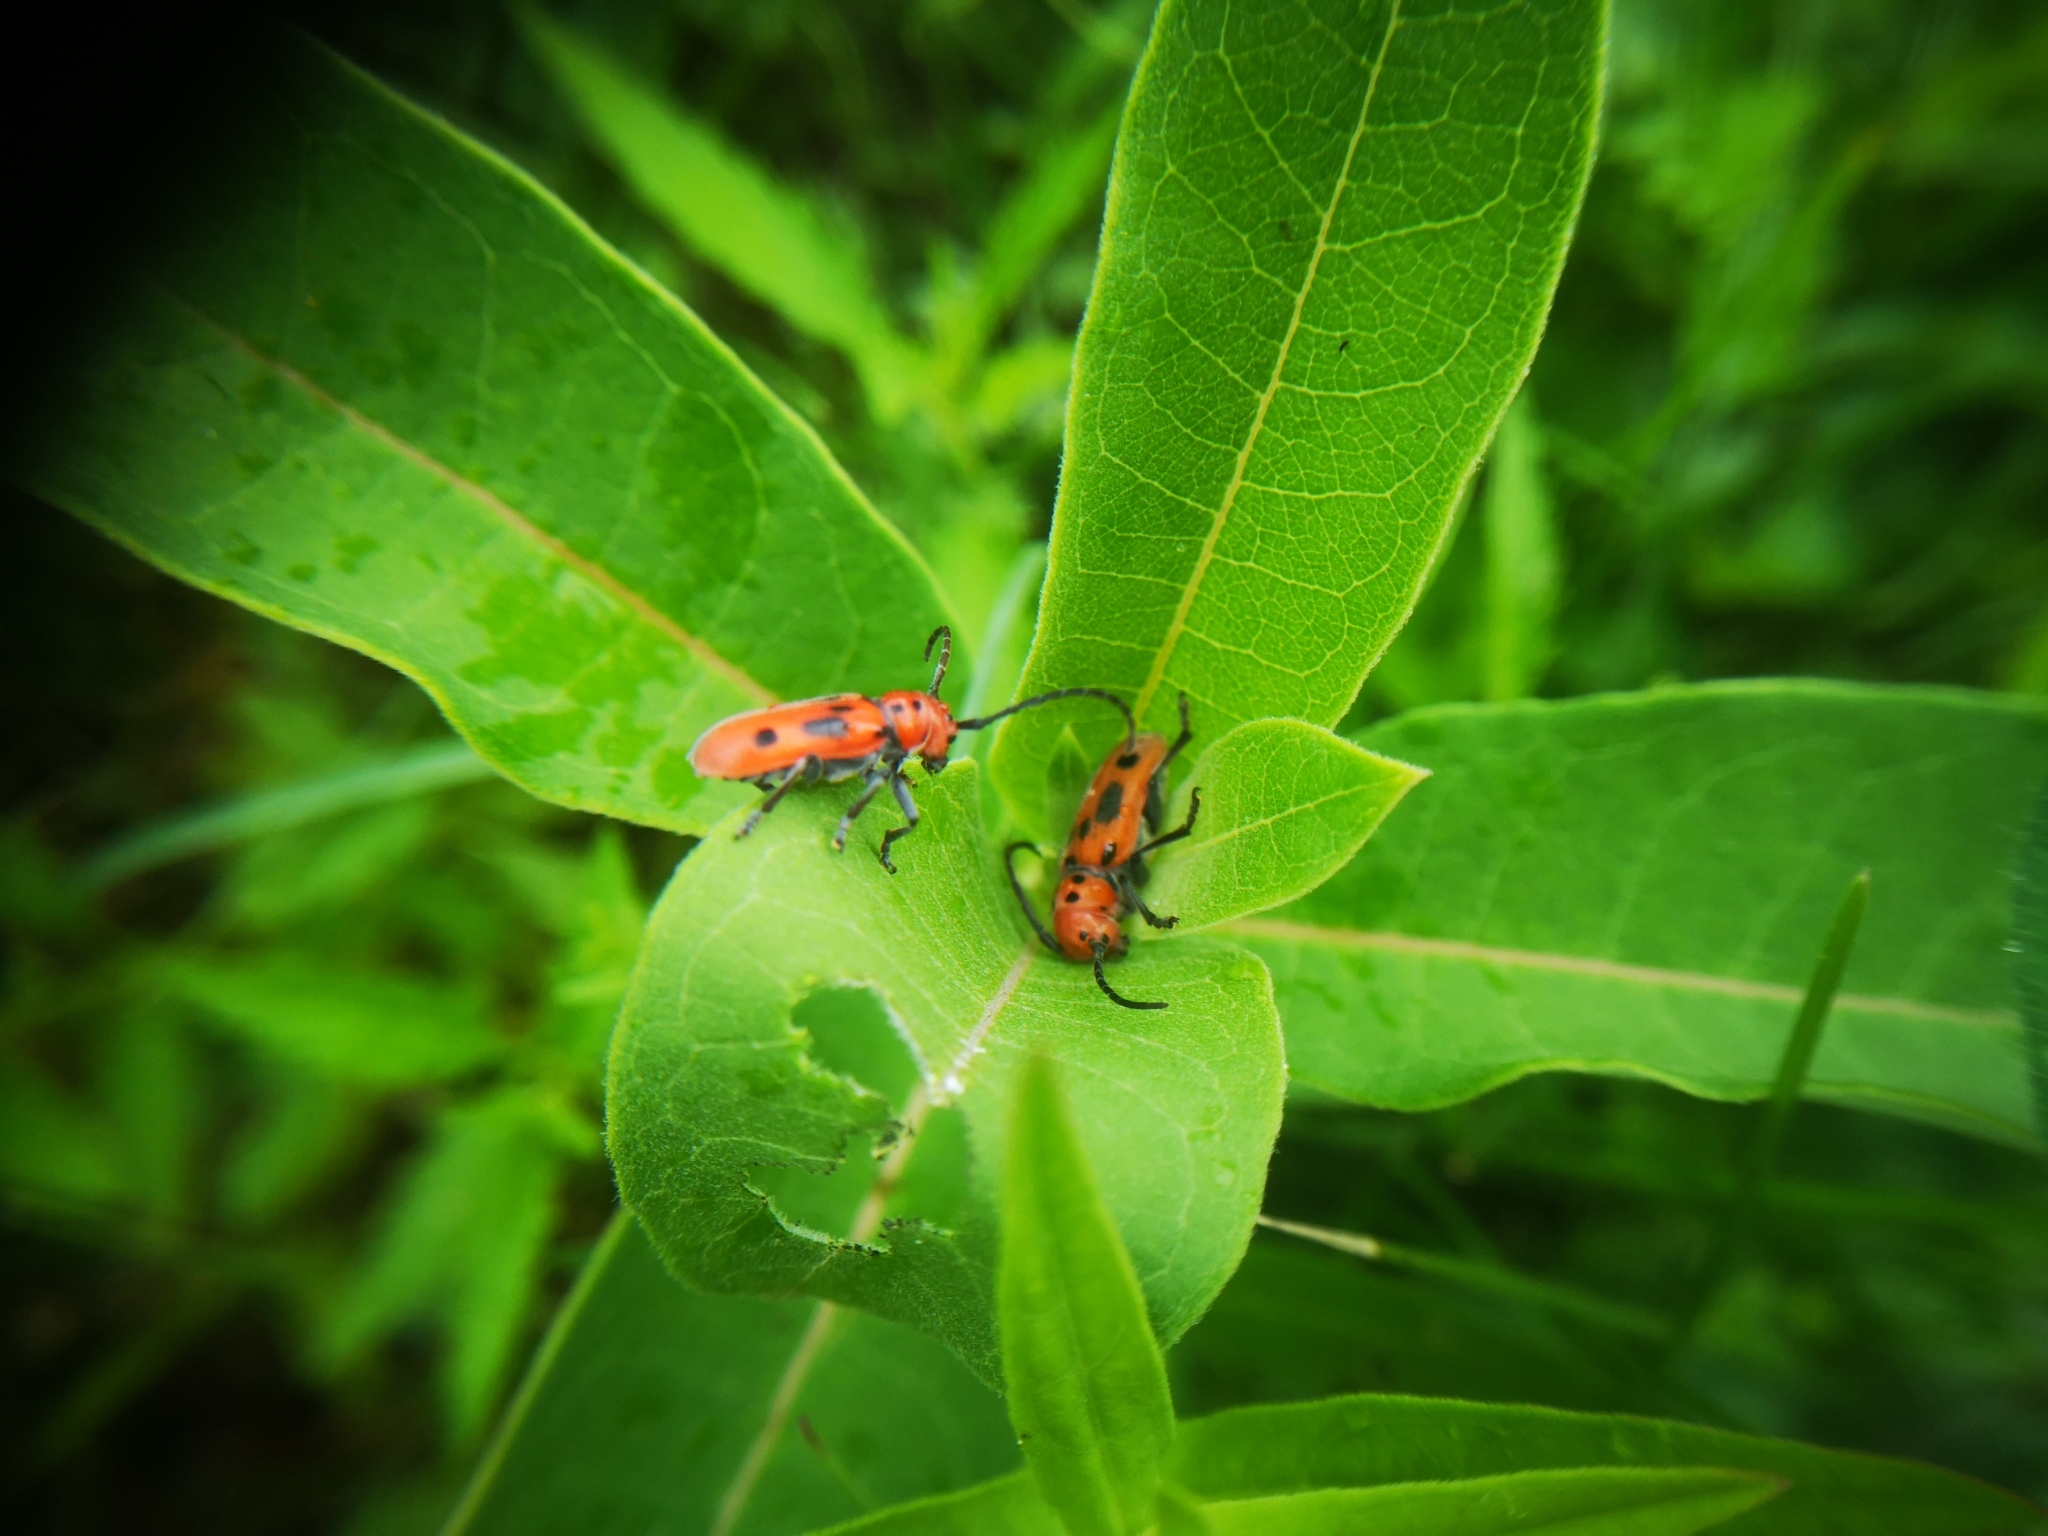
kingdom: Animalia
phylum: Arthropoda
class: Insecta
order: Coleoptera
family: Cerambycidae
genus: Tetraopes
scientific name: Tetraopes tetrophthalmus
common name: Red milkweed beetle
